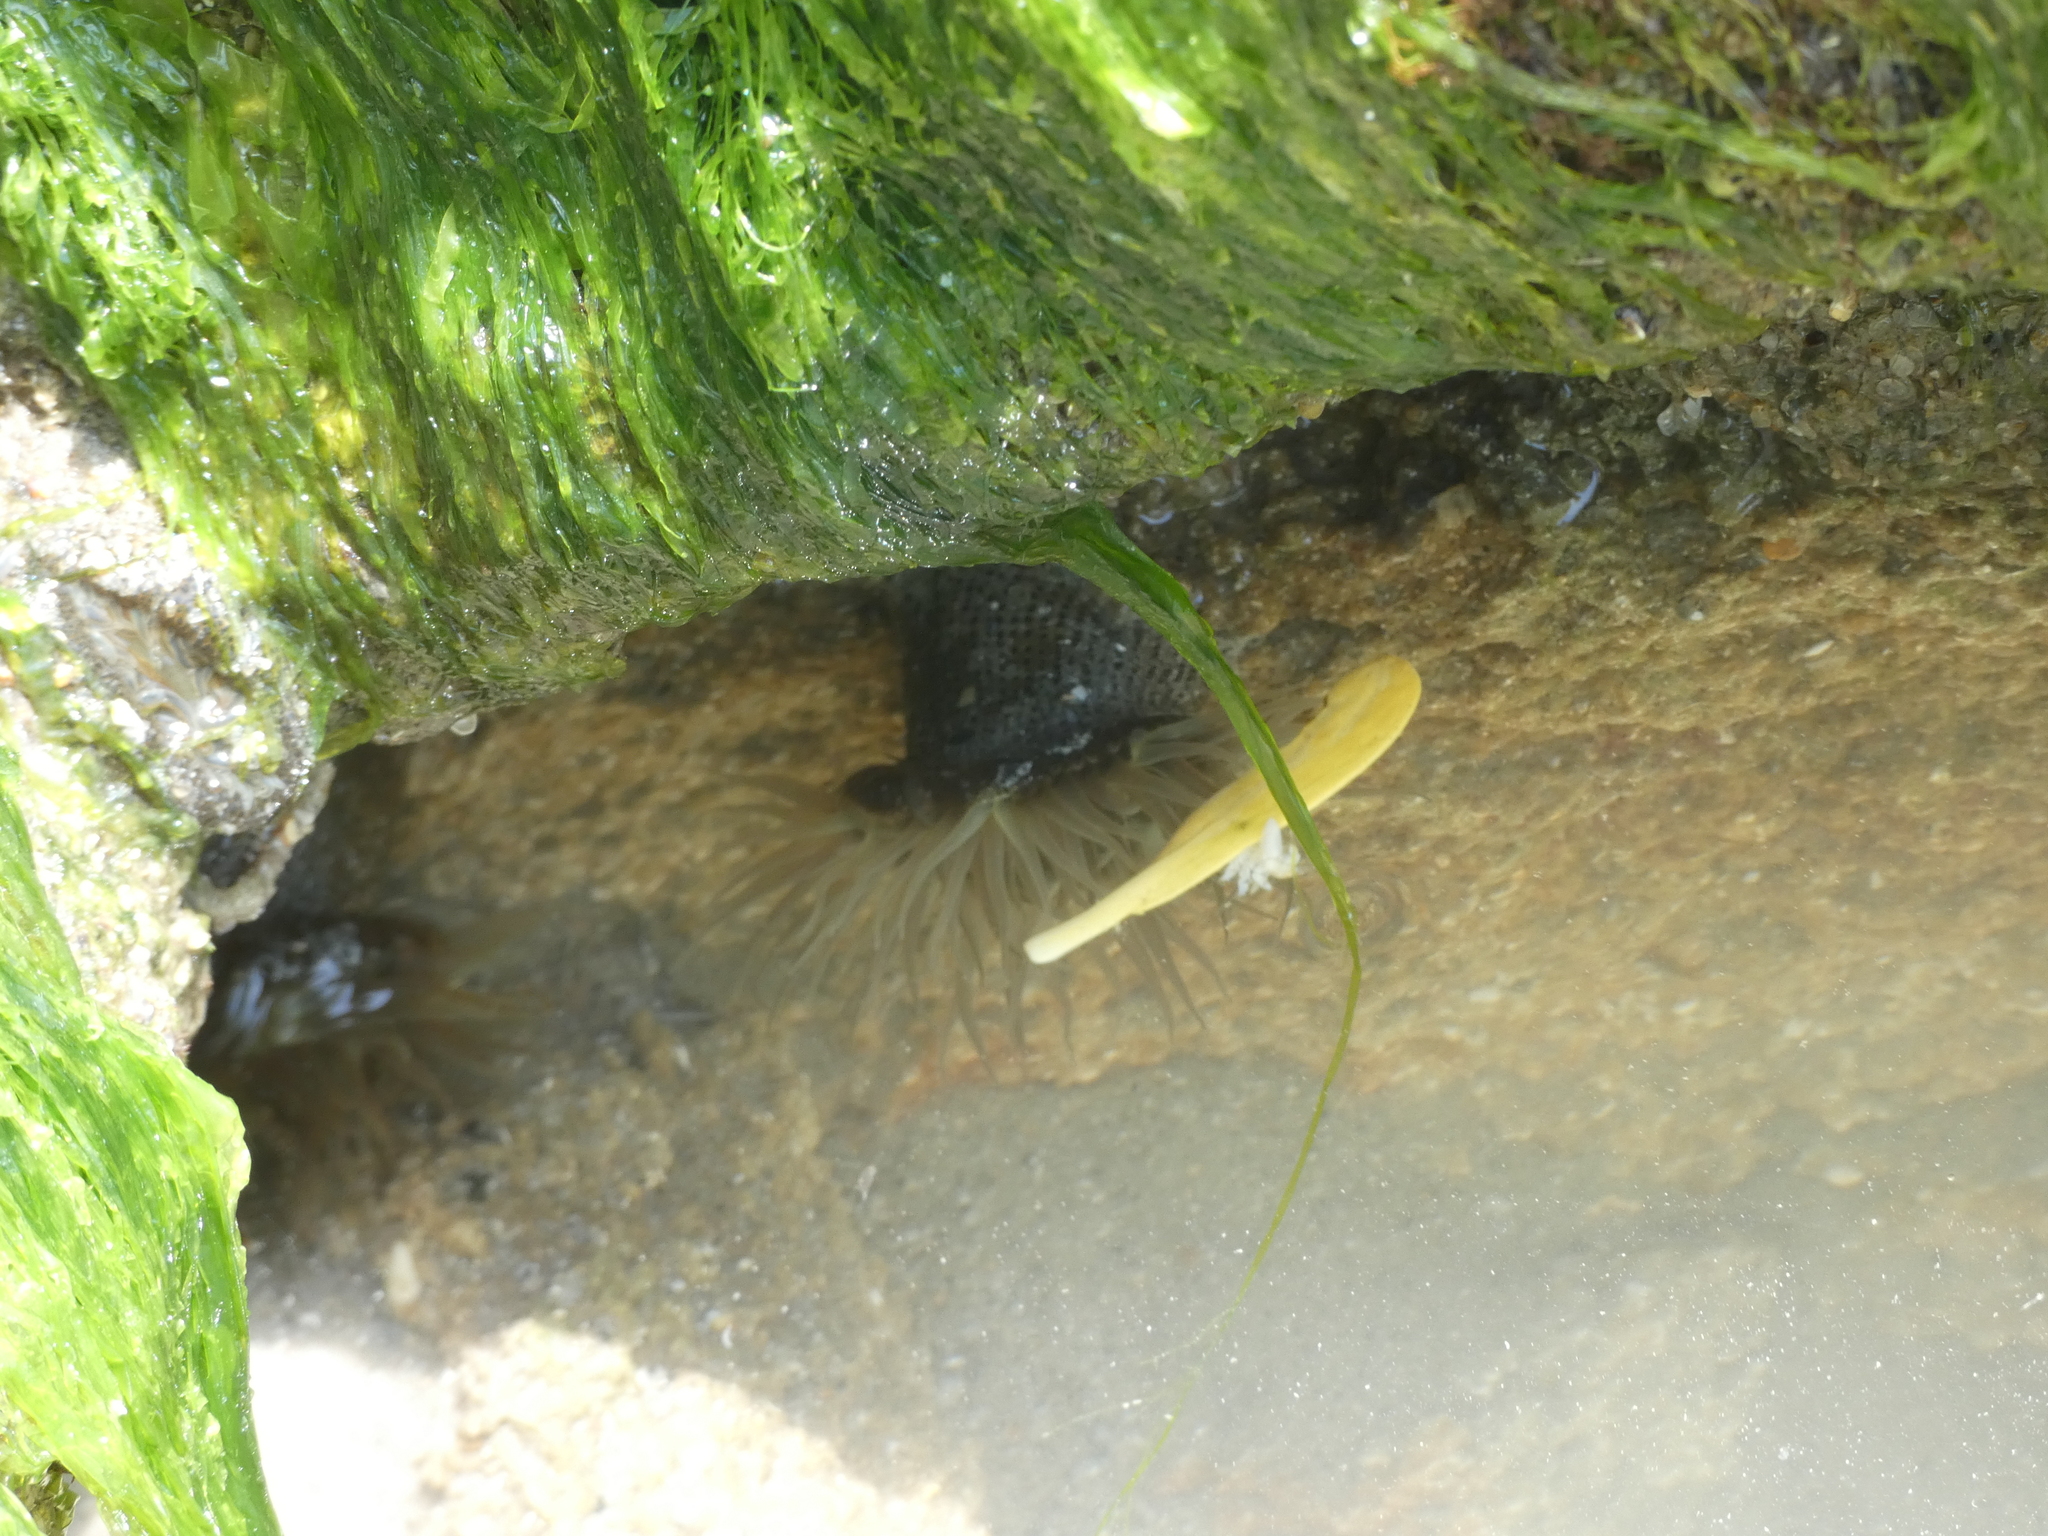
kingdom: Animalia
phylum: Cnidaria
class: Anthozoa
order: Actiniaria
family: Actiniidae
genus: Bunodosoma
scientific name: Bunodosoma cavernatum
